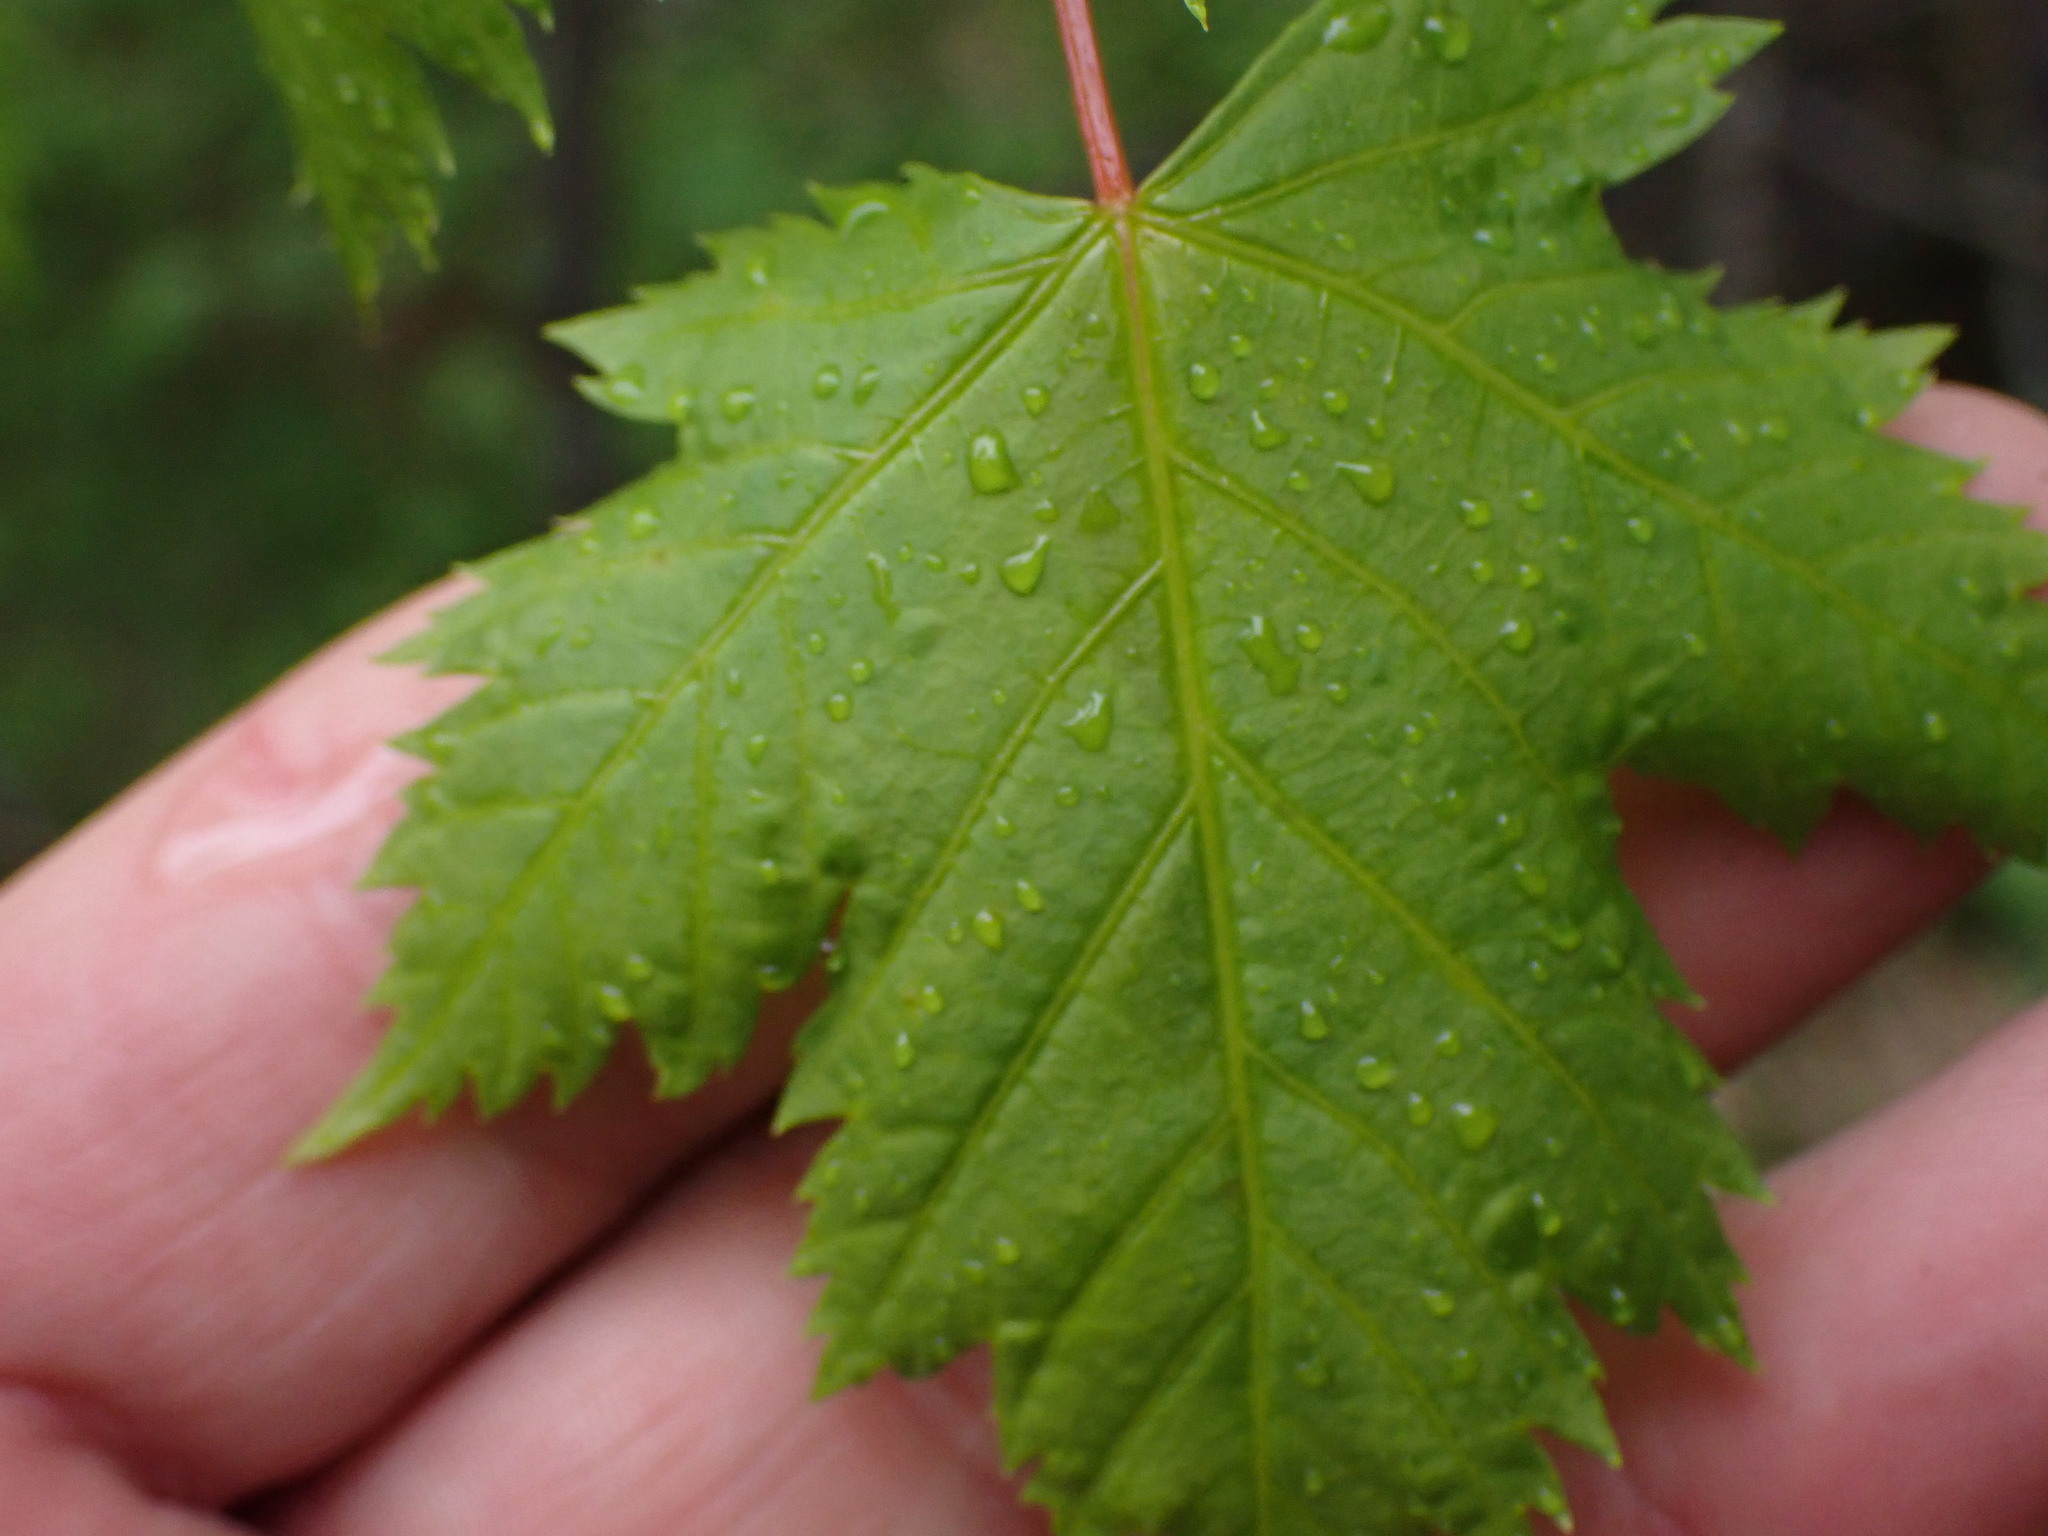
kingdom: Plantae
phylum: Tracheophyta
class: Magnoliopsida
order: Sapindales
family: Sapindaceae
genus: Acer
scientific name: Acer glabrum
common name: Rocky mountain maple
